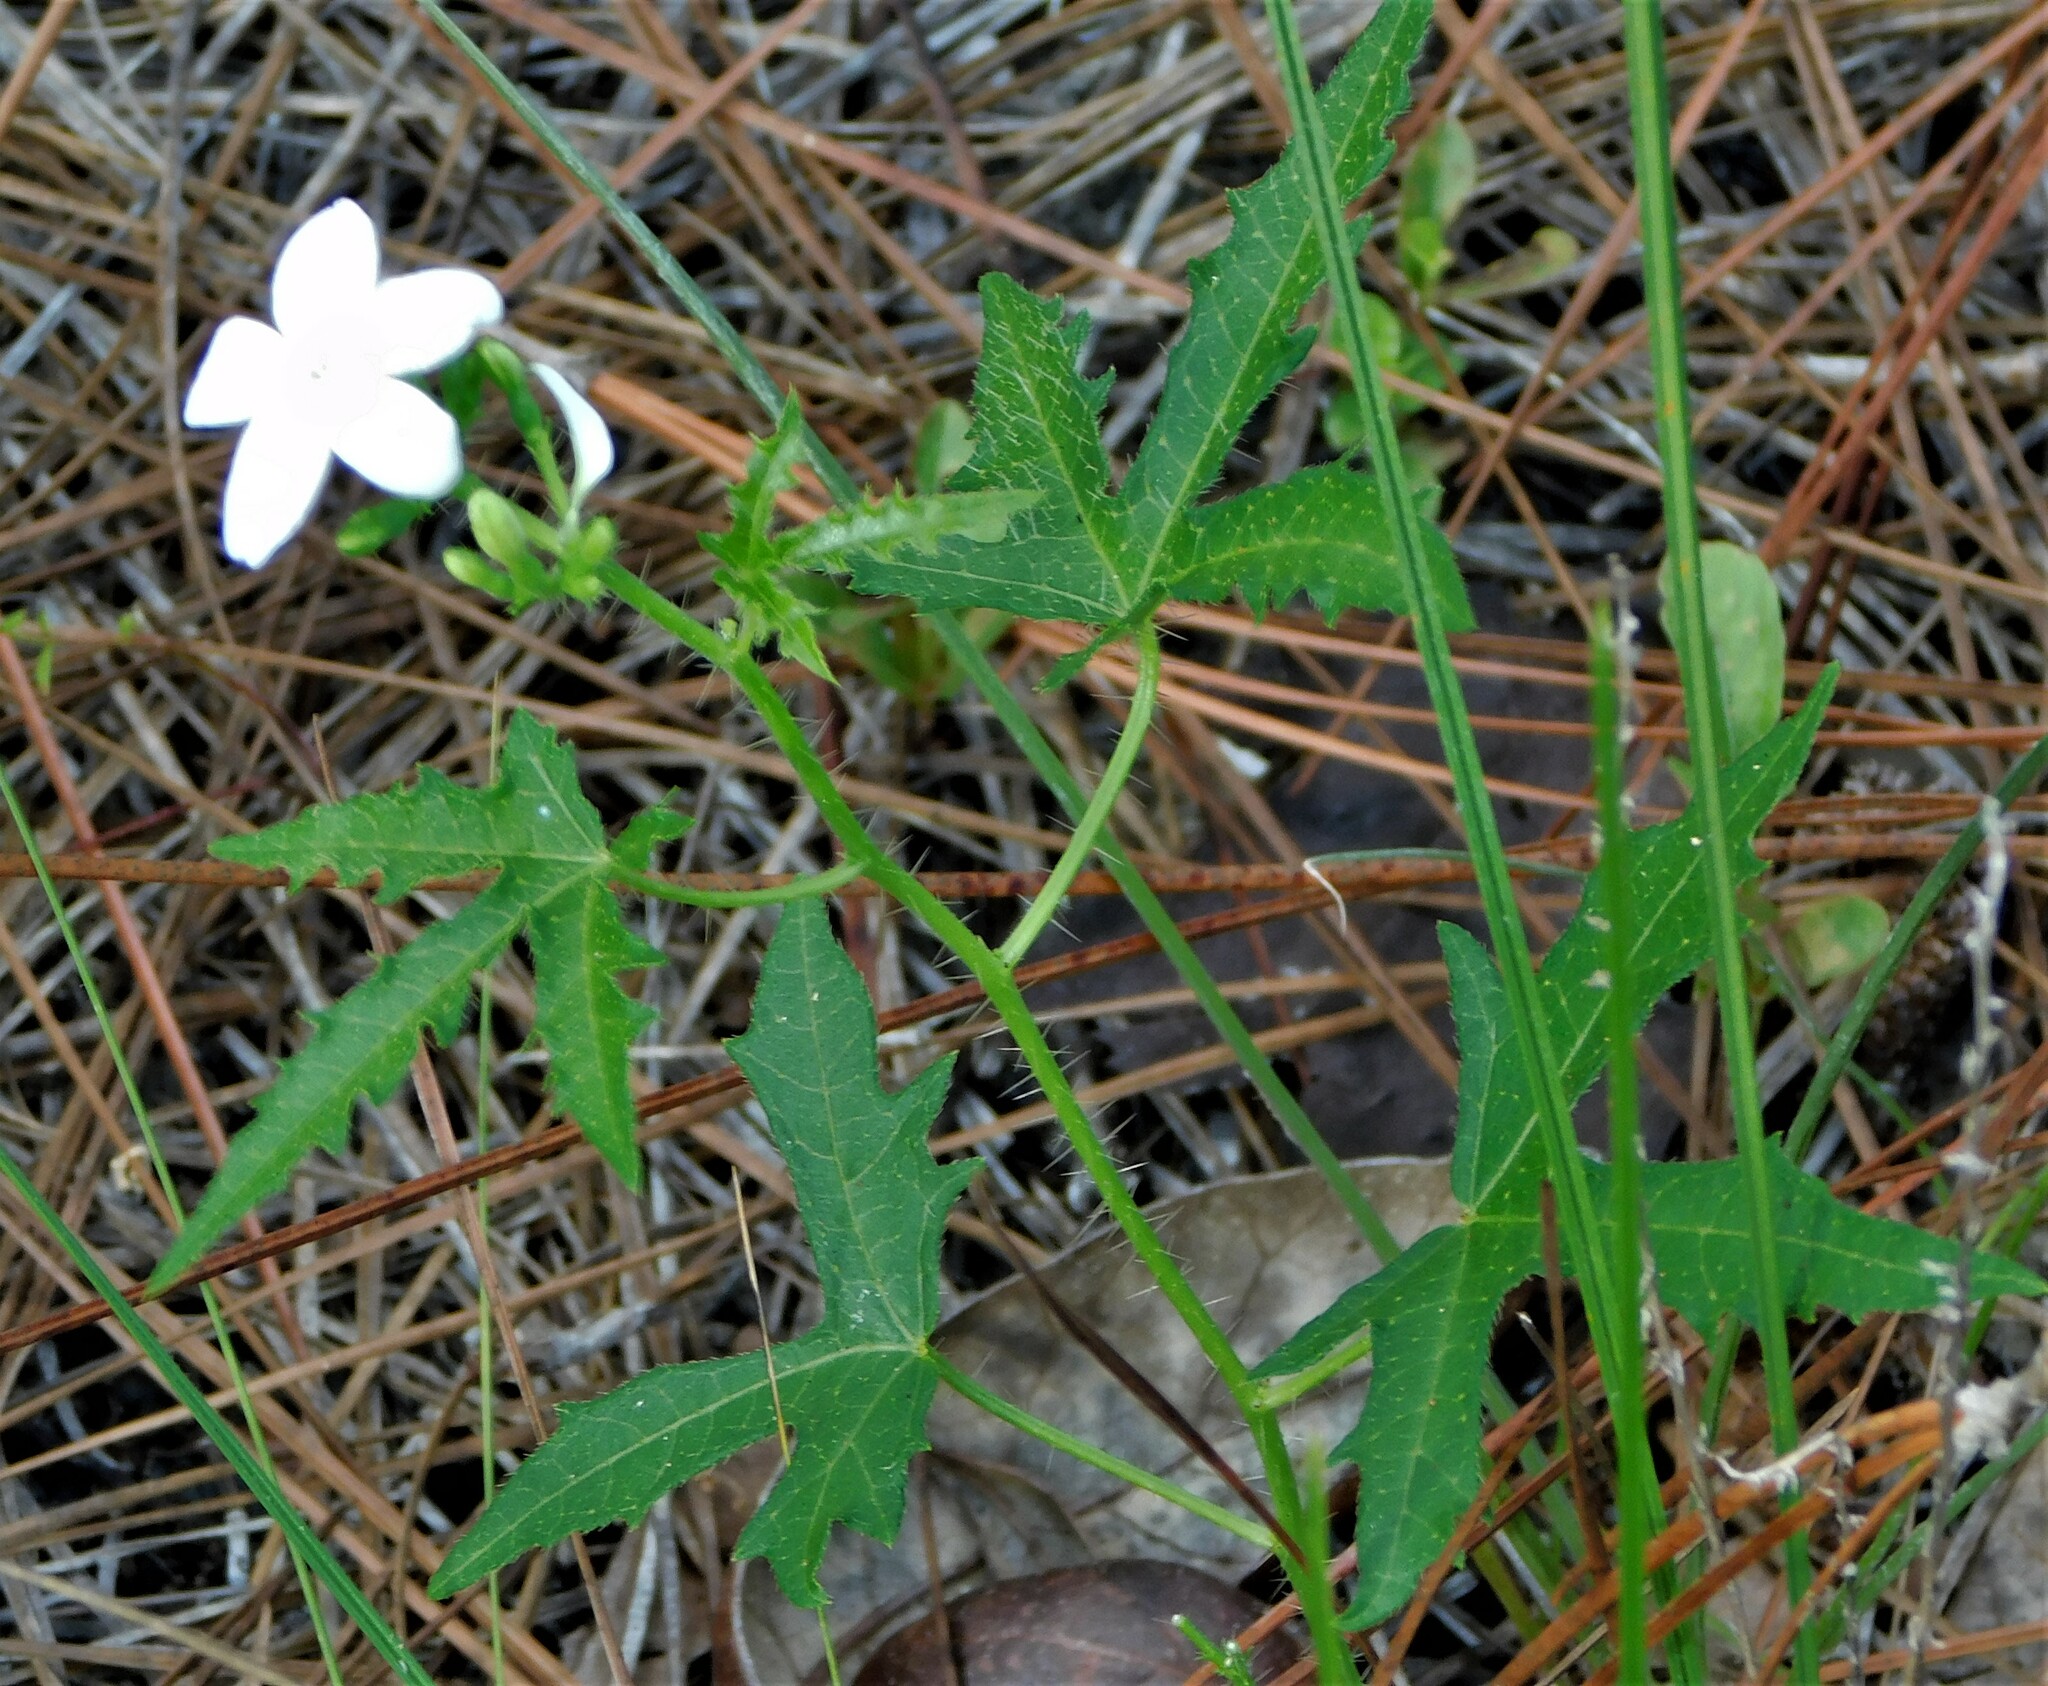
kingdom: Plantae
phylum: Tracheophyta
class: Magnoliopsida
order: Malpighiales
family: Euphorbiaceae
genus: Cnidoscolus
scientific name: Cnidoscolus stimulosus
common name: Bull-nettle
